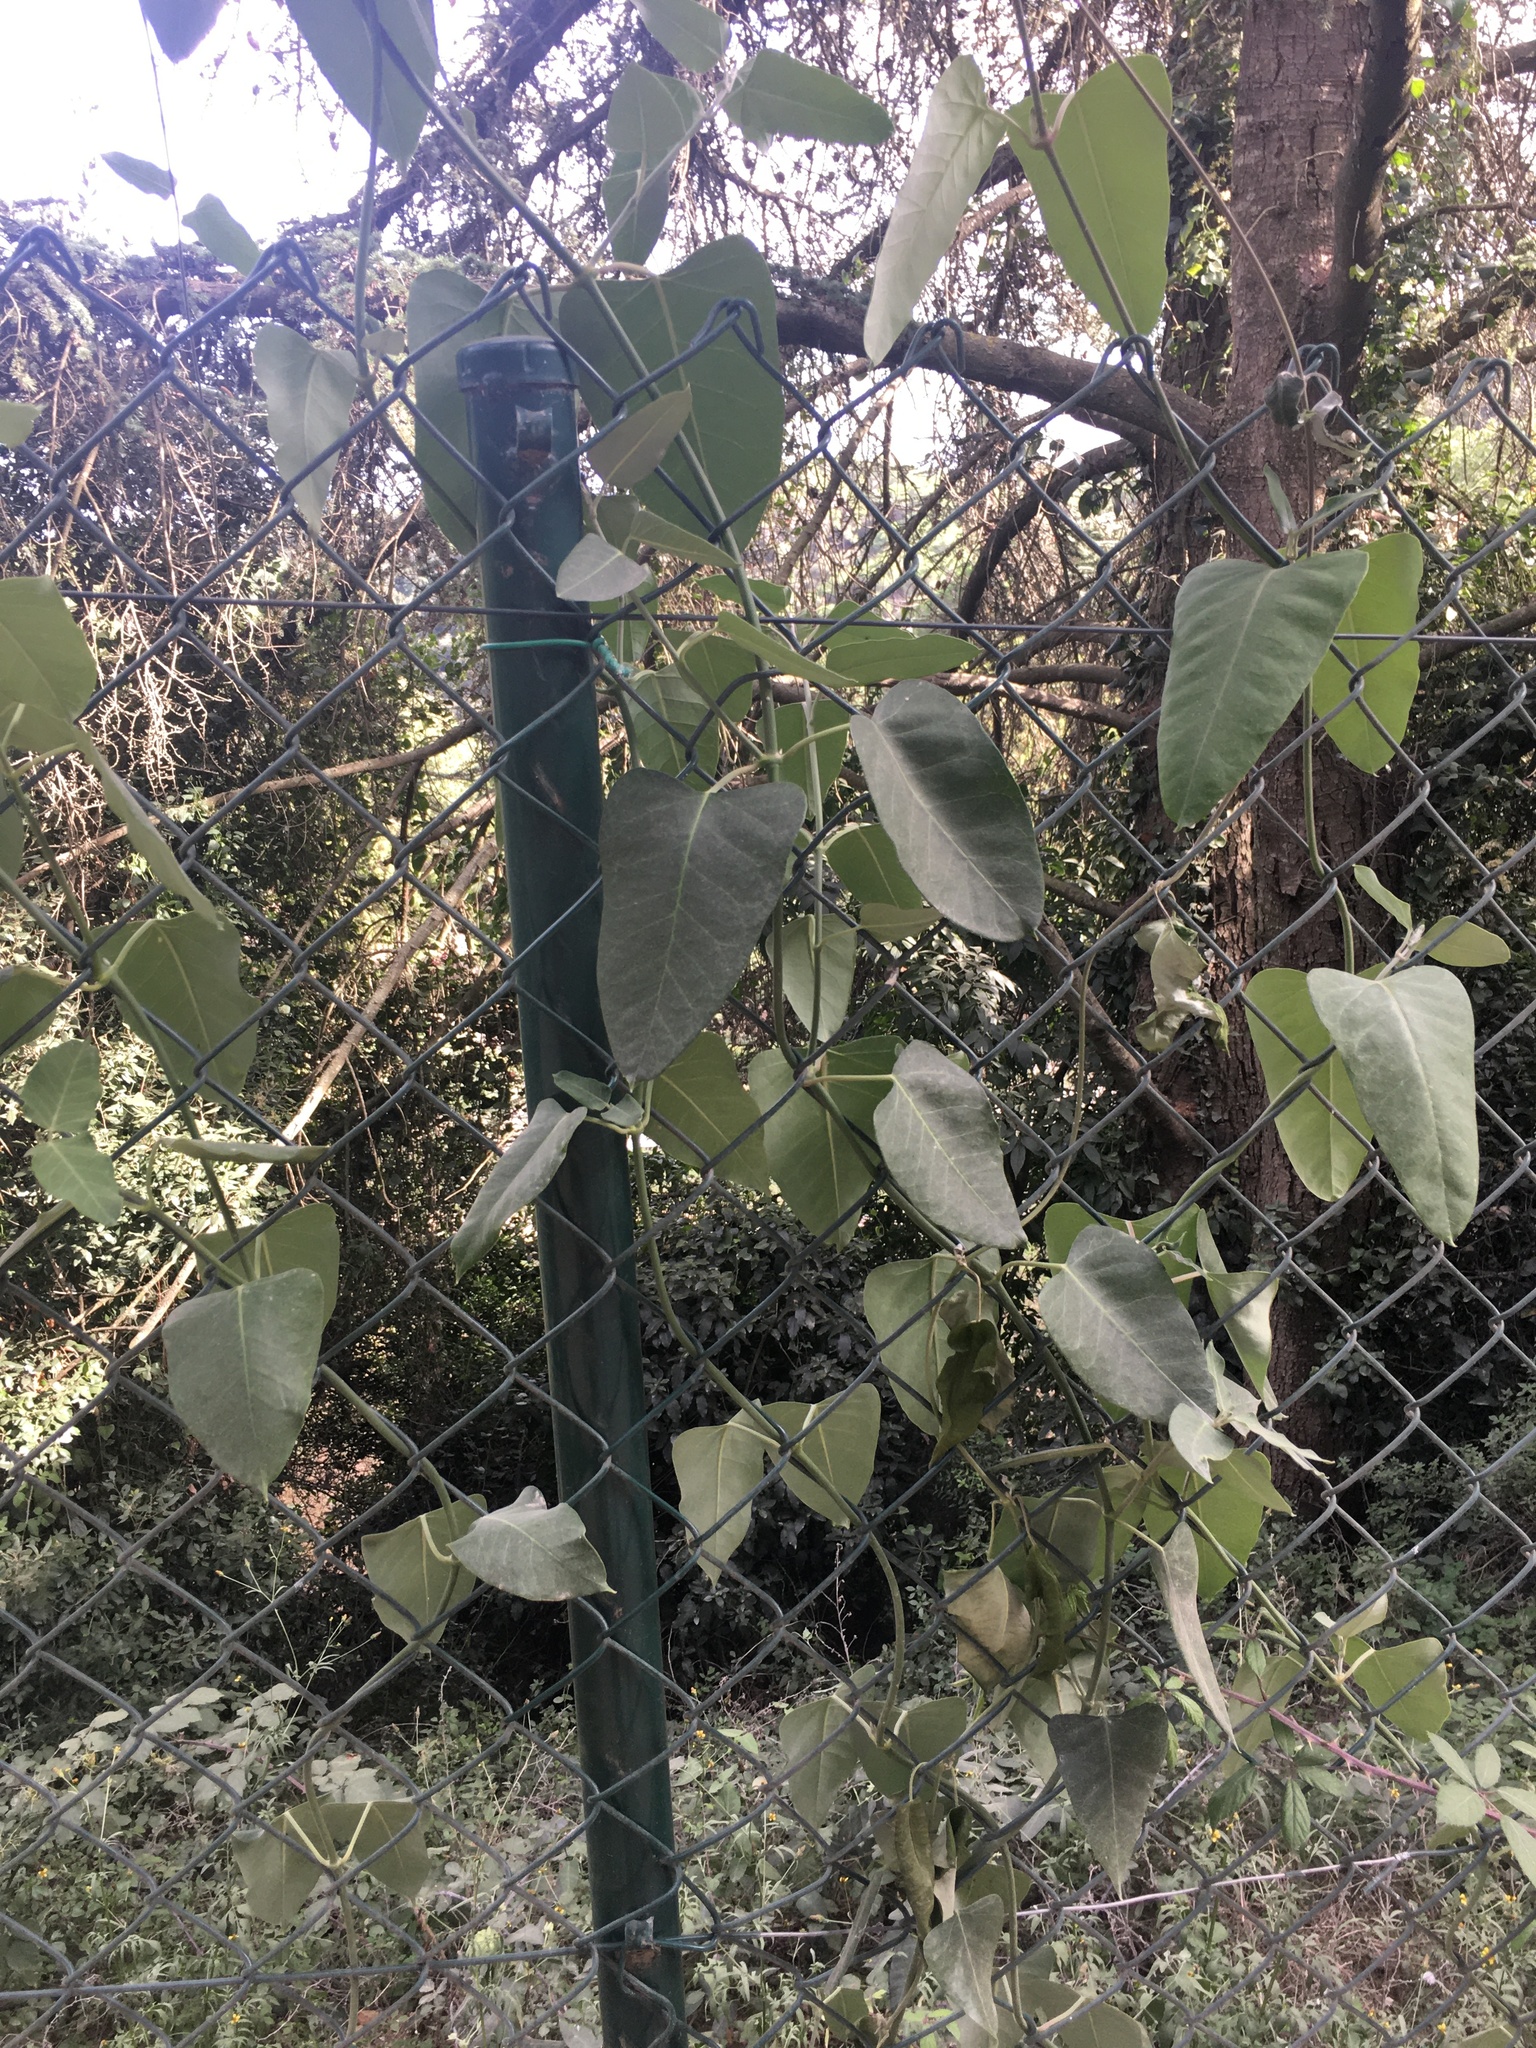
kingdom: Plantae
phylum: Tracheophyta
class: Magnoliopsida
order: Gentianales
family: Apocynaceae
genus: Araujia
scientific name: Araujia sericifera
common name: White bladderflower
